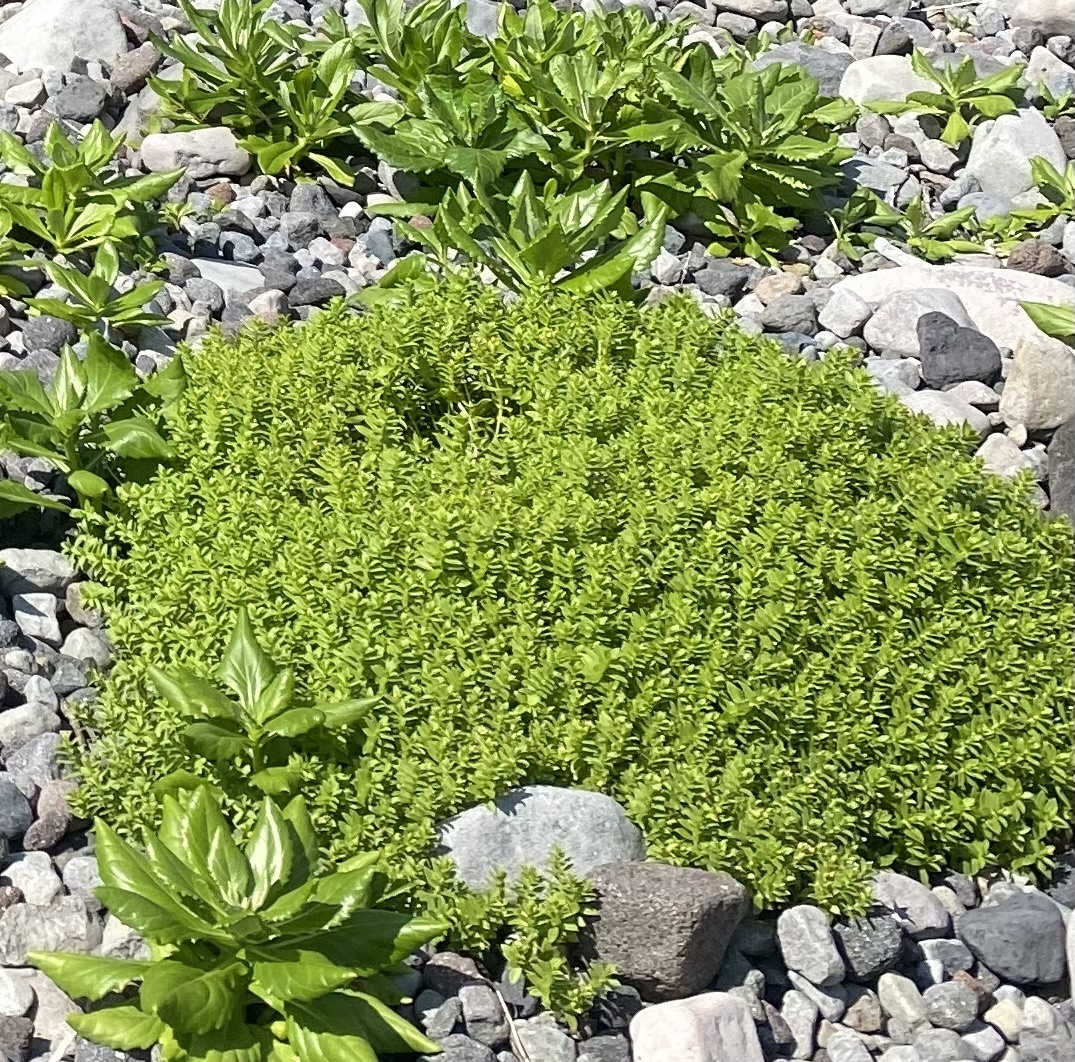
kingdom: Plantae
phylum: Tracheophyta
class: Magnoliopsida
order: Caryophyllales
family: Caryophyllaceae
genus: Honckenya
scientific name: Honckenya peploides
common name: Sea sandwort
